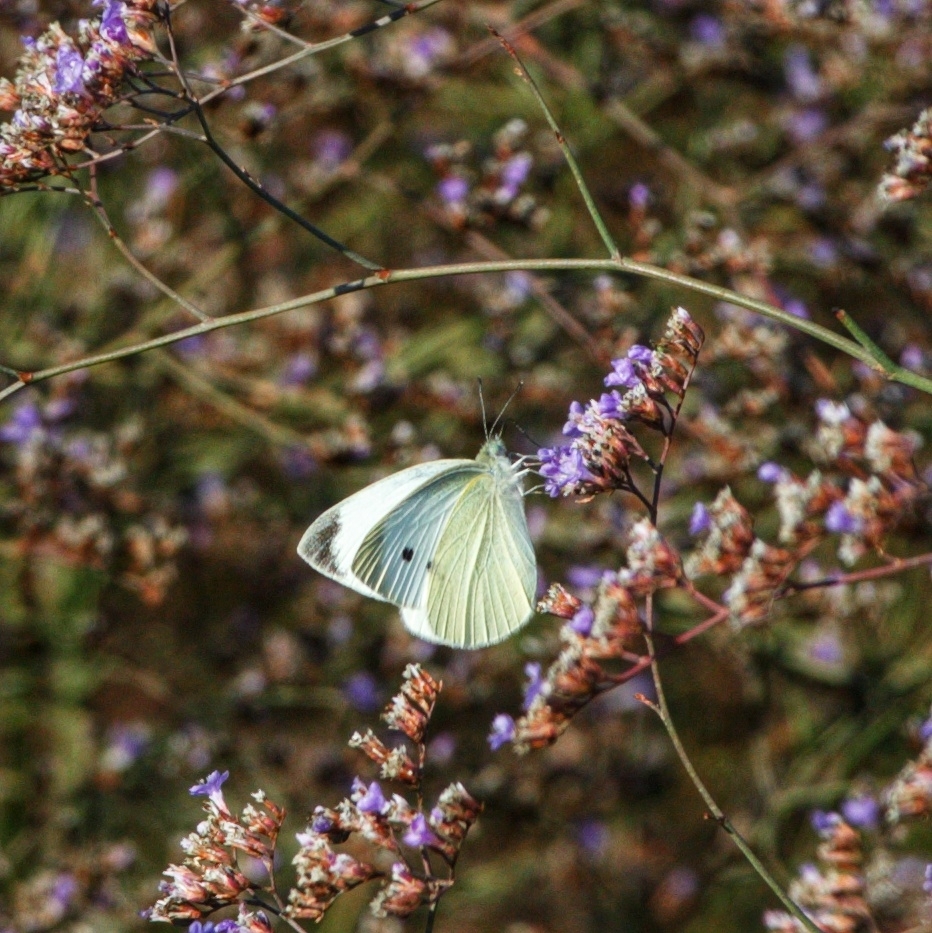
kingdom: Animalia
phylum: Arthropoda
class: Insecta
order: Lepidoptera
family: Pieridae
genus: Pieris
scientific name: Pieris rapae
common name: Small white
